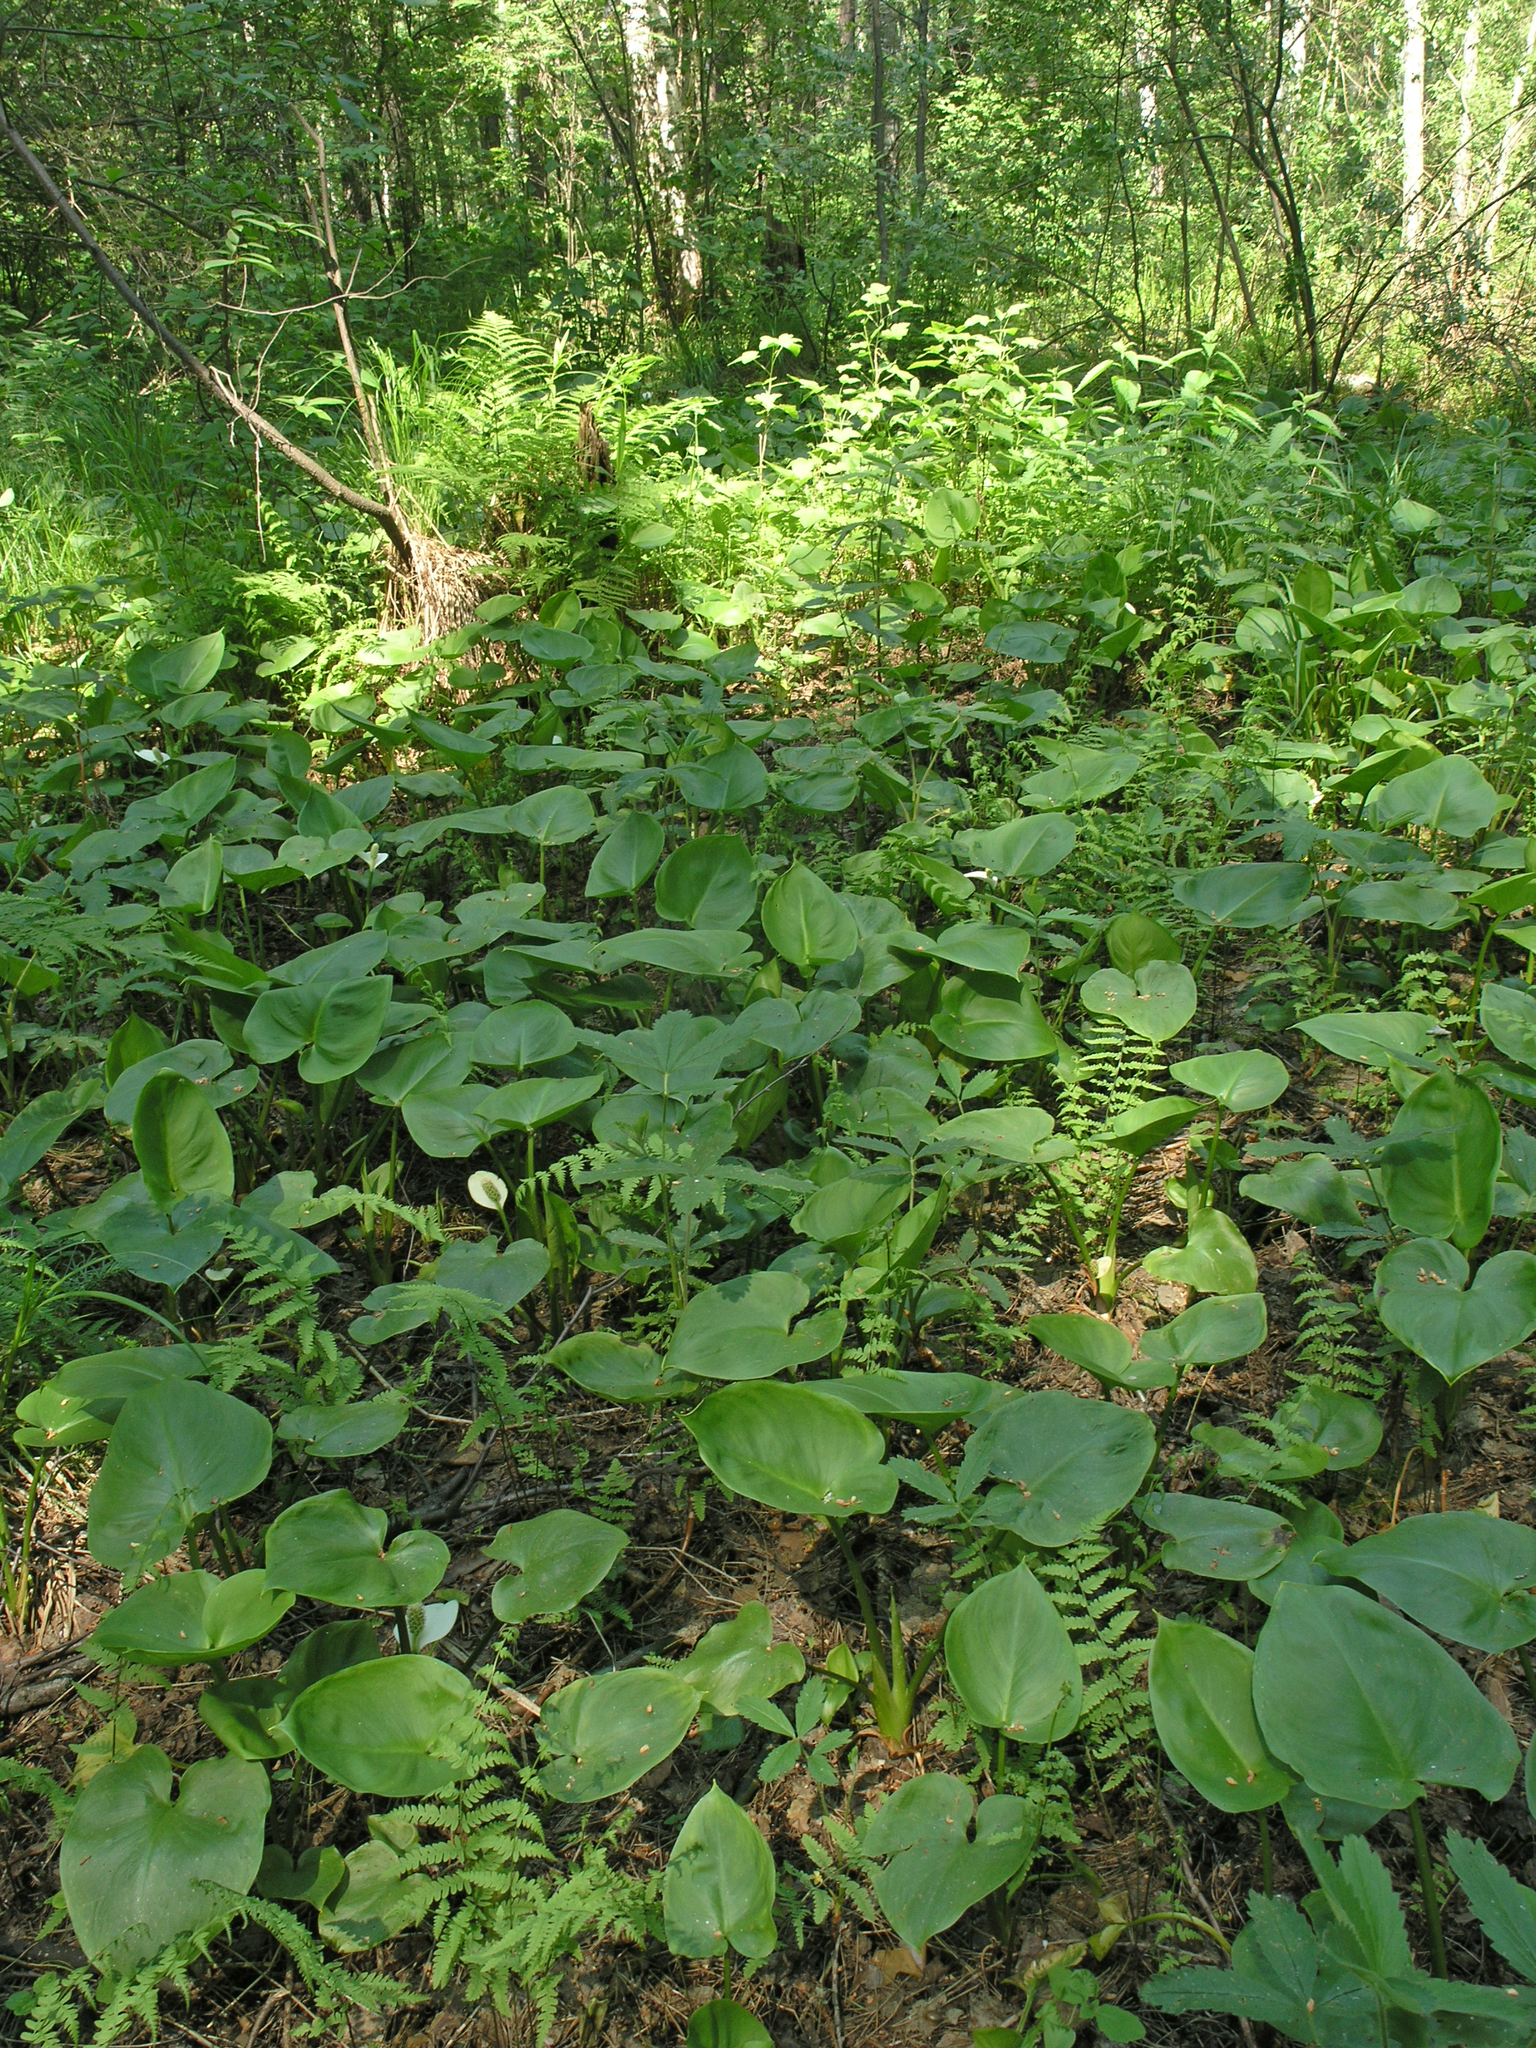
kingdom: Plantae
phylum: Tracheophyta
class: Liliopsida
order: Alismatales
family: Araceae
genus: Calla
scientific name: Calla palustris
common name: Bog arum
